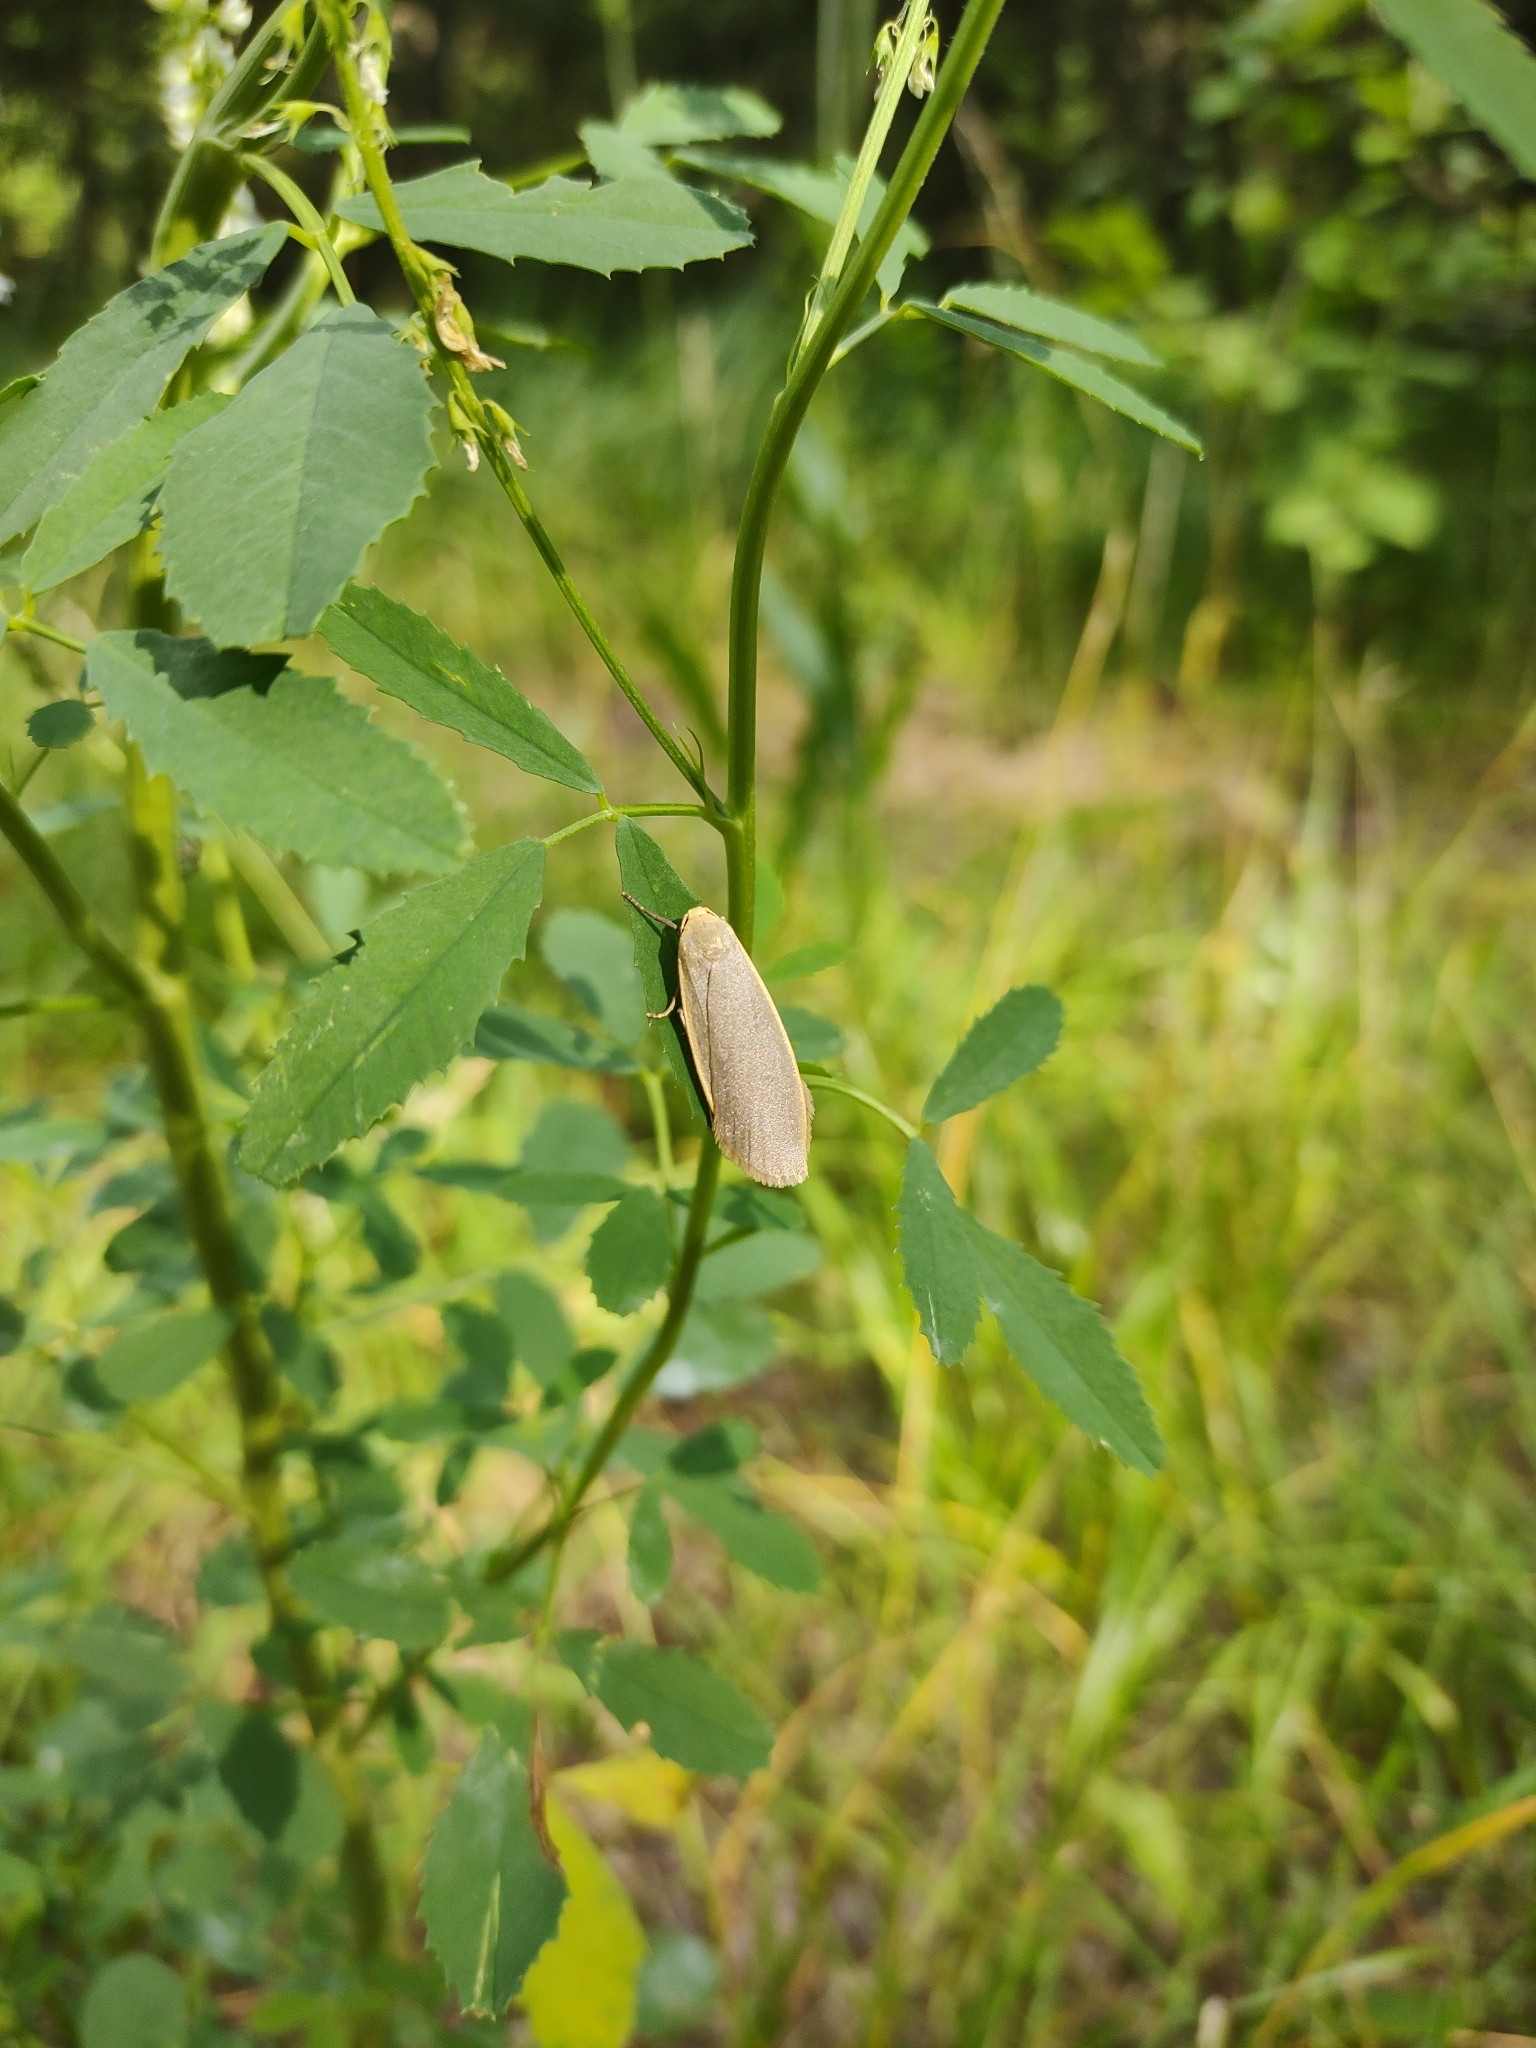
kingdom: Animalia
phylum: Arthropoda
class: Insecta
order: Lepidoptera
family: Erebidae
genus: Collita
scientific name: Collita griseola
